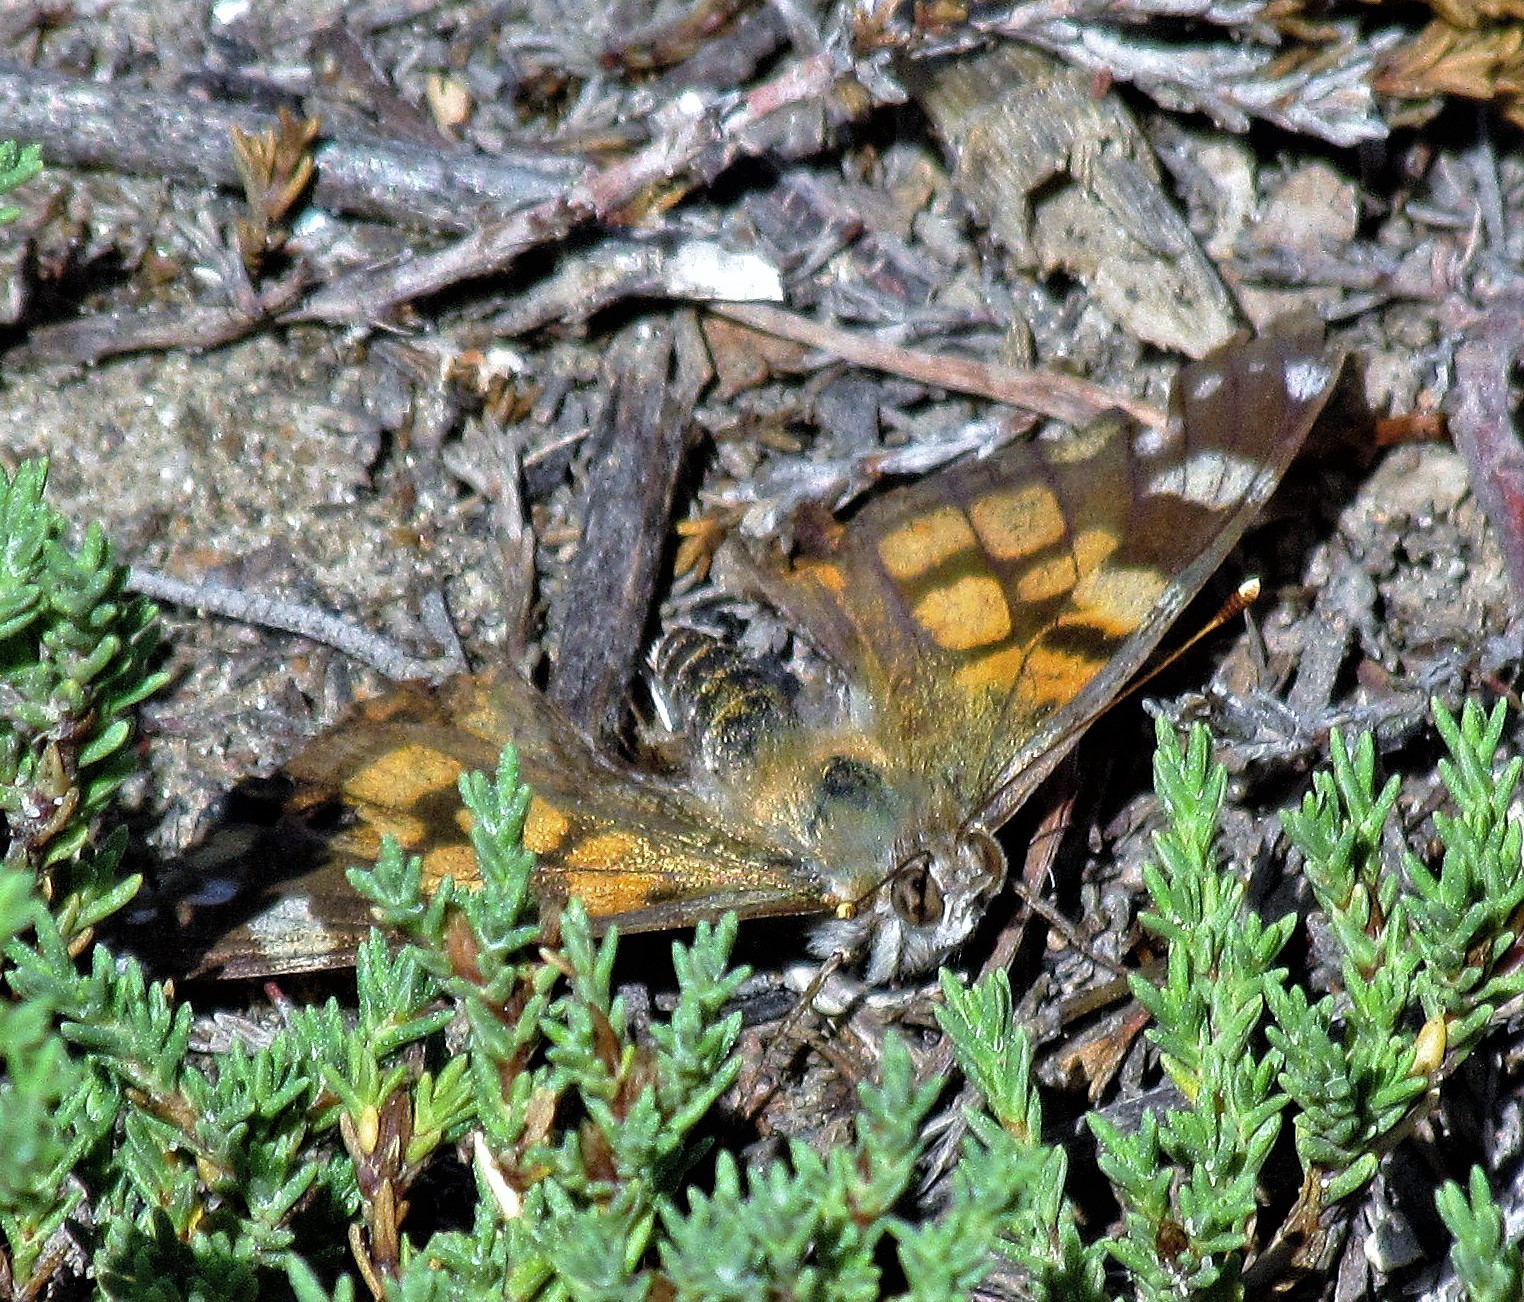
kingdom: Animalia
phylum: Arthropoda
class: Insecta
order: Lepidoptera
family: Nymphalidae
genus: Vanessa
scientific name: Vanessa carye
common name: Subtropical lady
